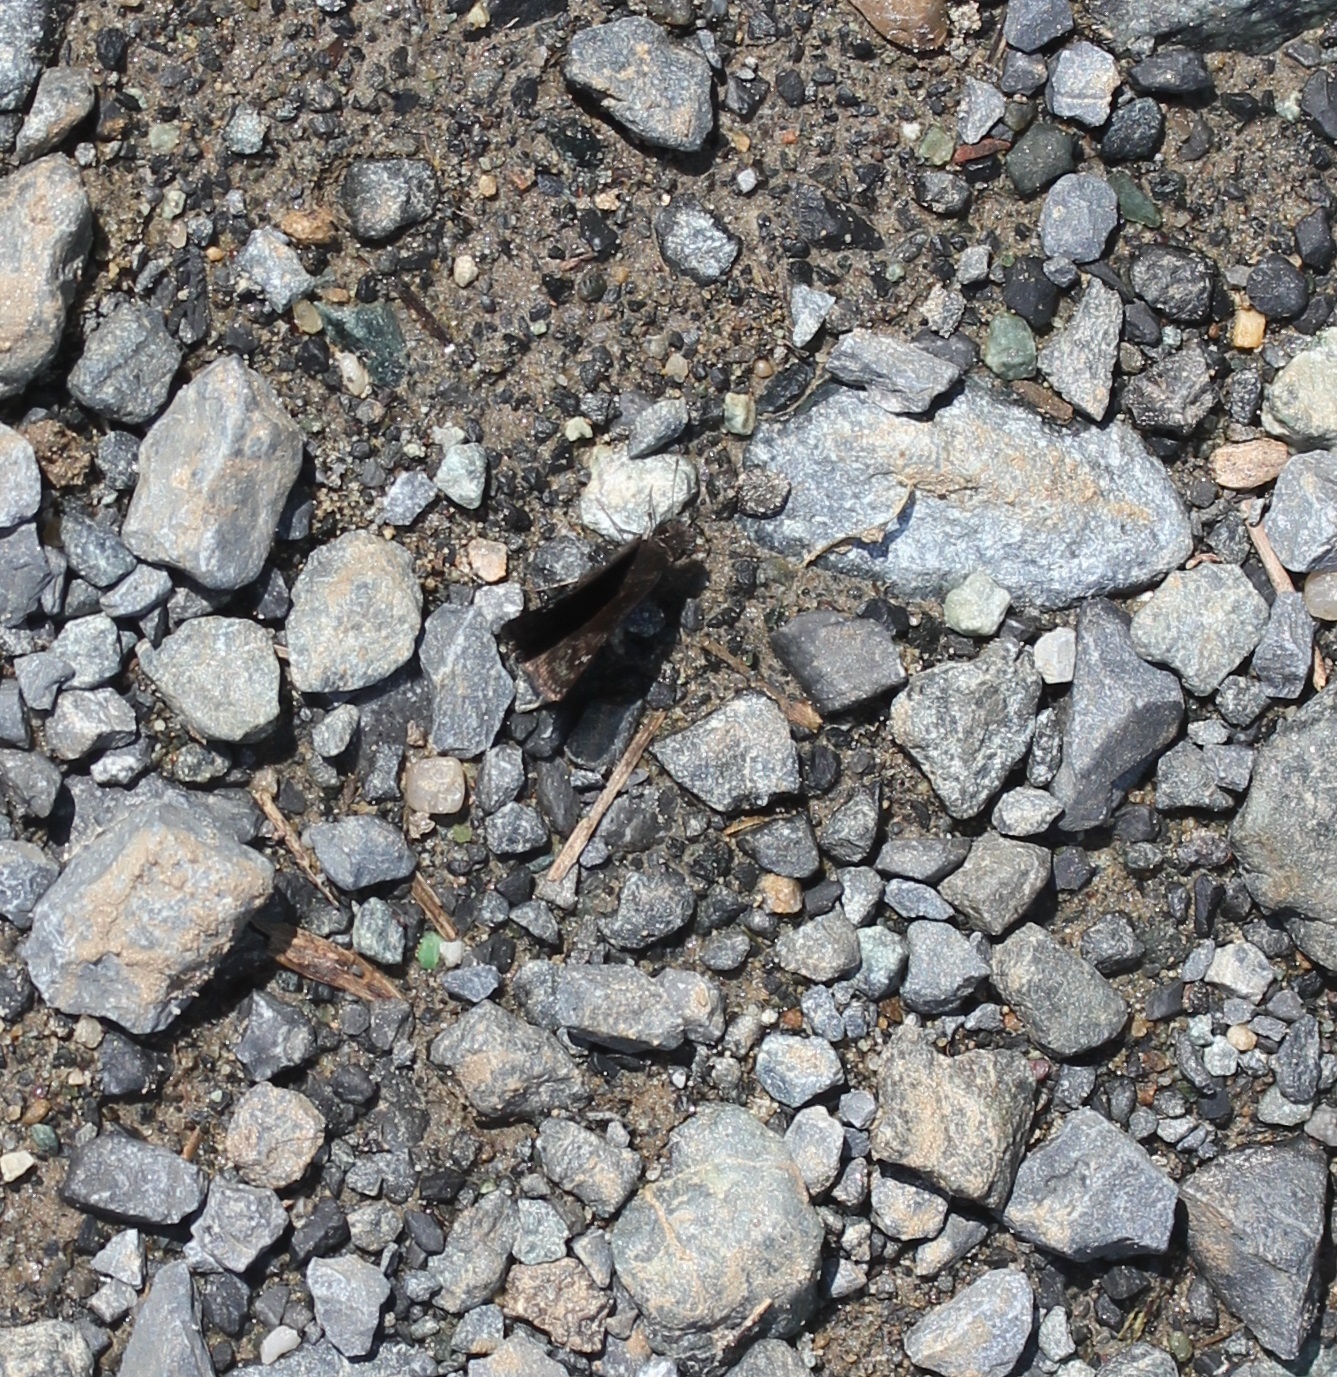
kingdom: Animalia
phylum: Arthropoda
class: Insecta
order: Lepidoptera
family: Hesperiidae
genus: Erynnis
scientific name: Erynnis baptisiae
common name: Wild indigo duskywing
